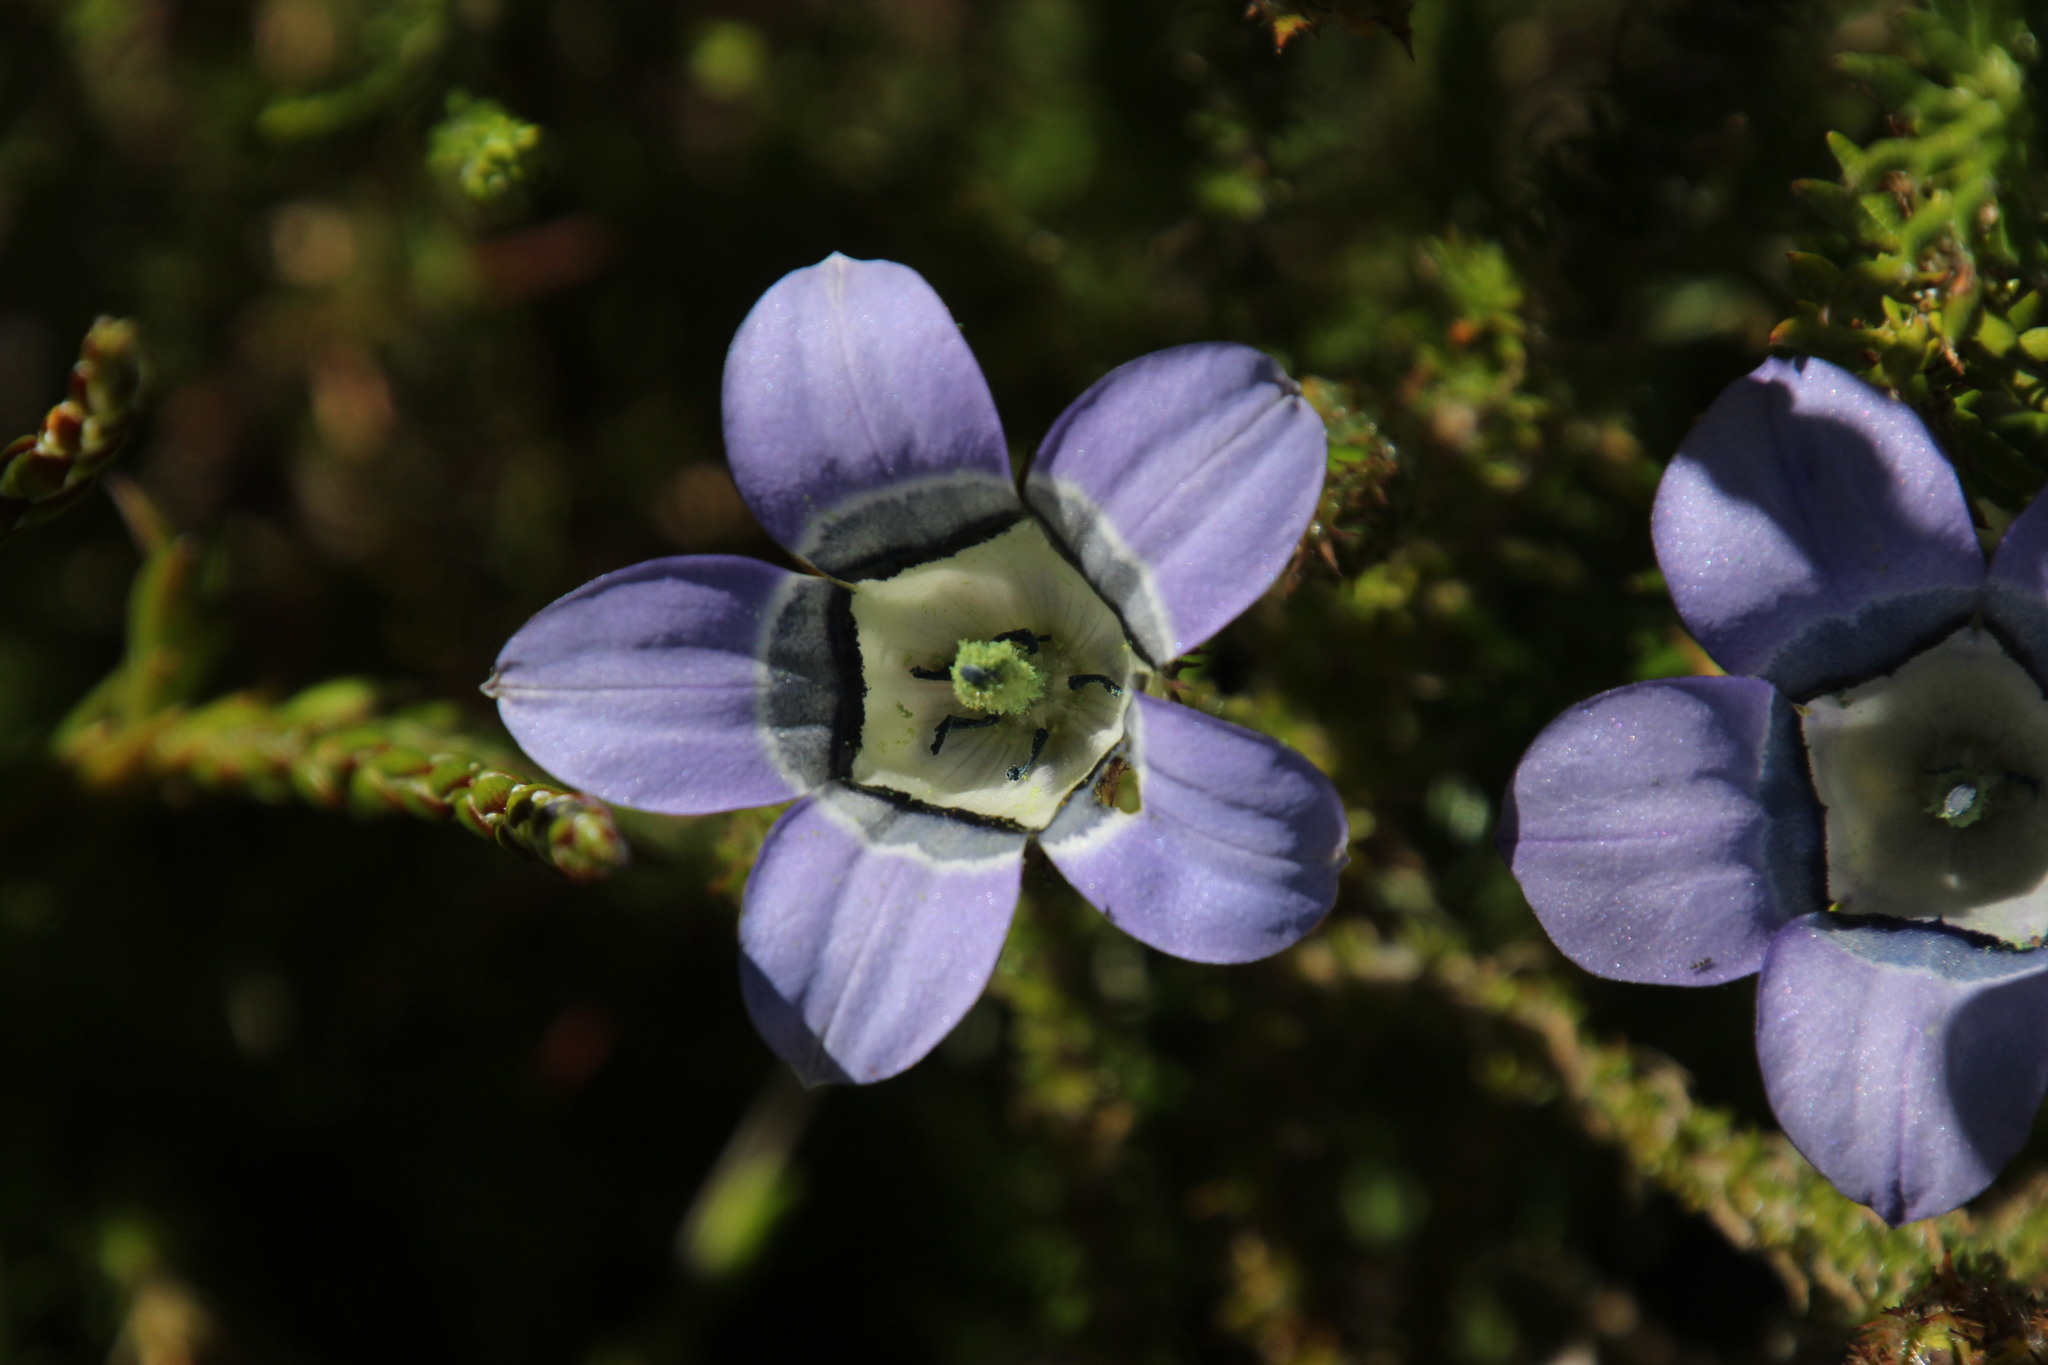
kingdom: Plantae
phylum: Tracheophyta
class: Magnoliopsida
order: Asterales
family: Campanulaceae
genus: Roella
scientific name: Roella ciliata
